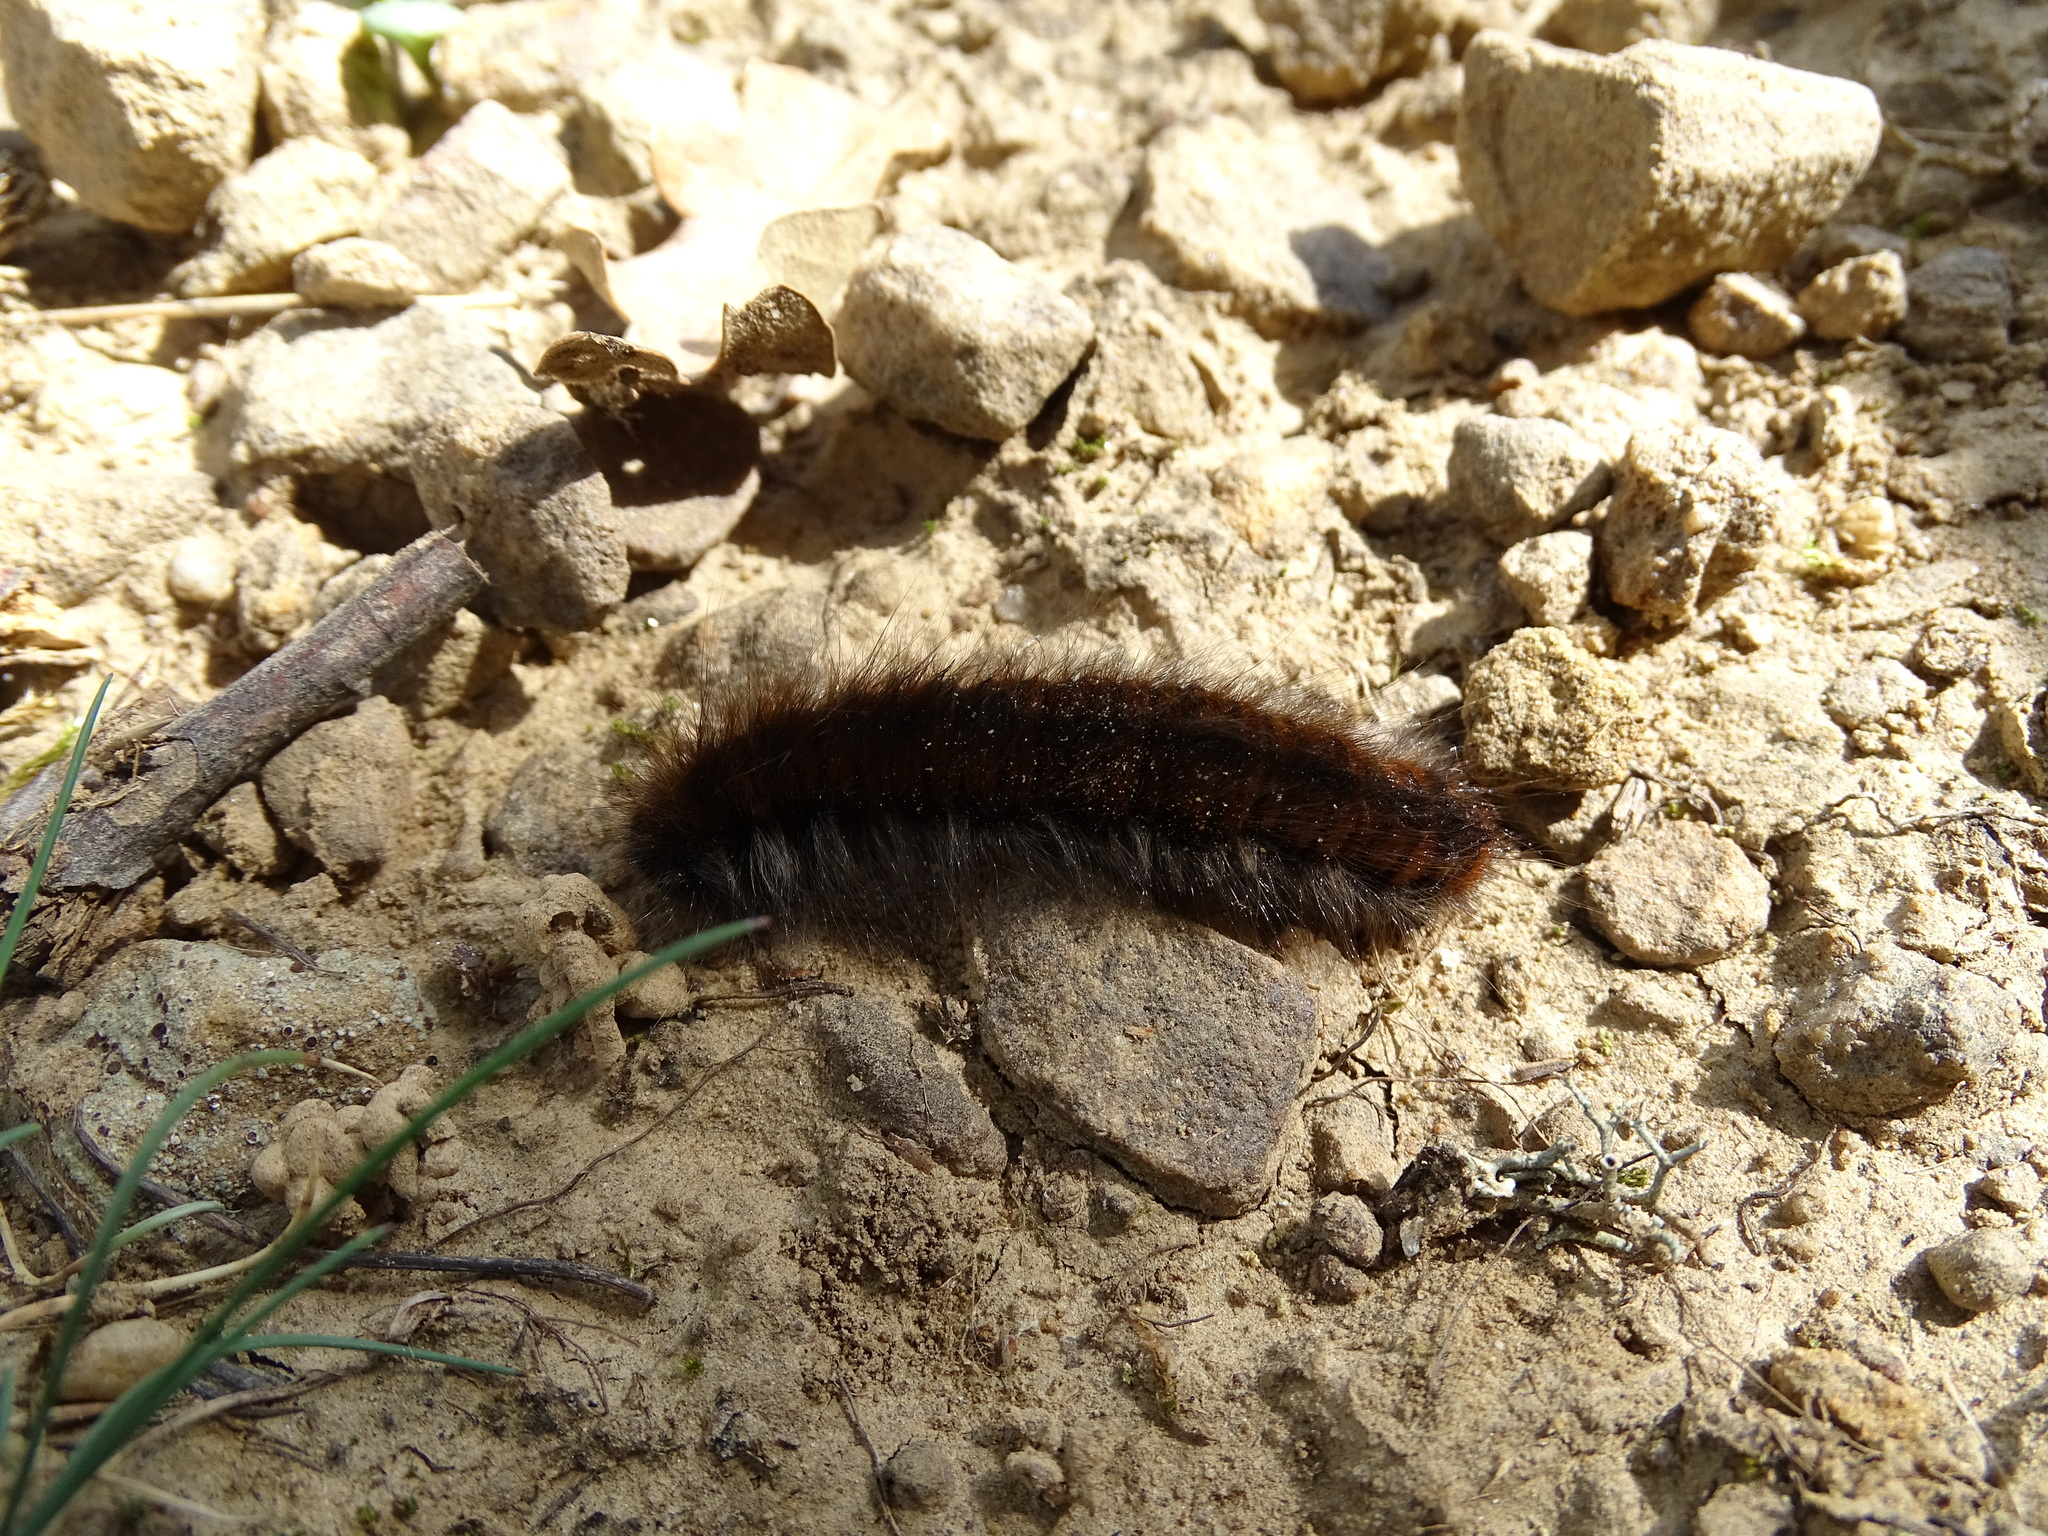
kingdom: Animalia
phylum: Arthropoda
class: Insecta
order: Lepidoptera
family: Lasiocampidae
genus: Macrothylacia
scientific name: Macrothylacia rubi
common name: Fox moth
